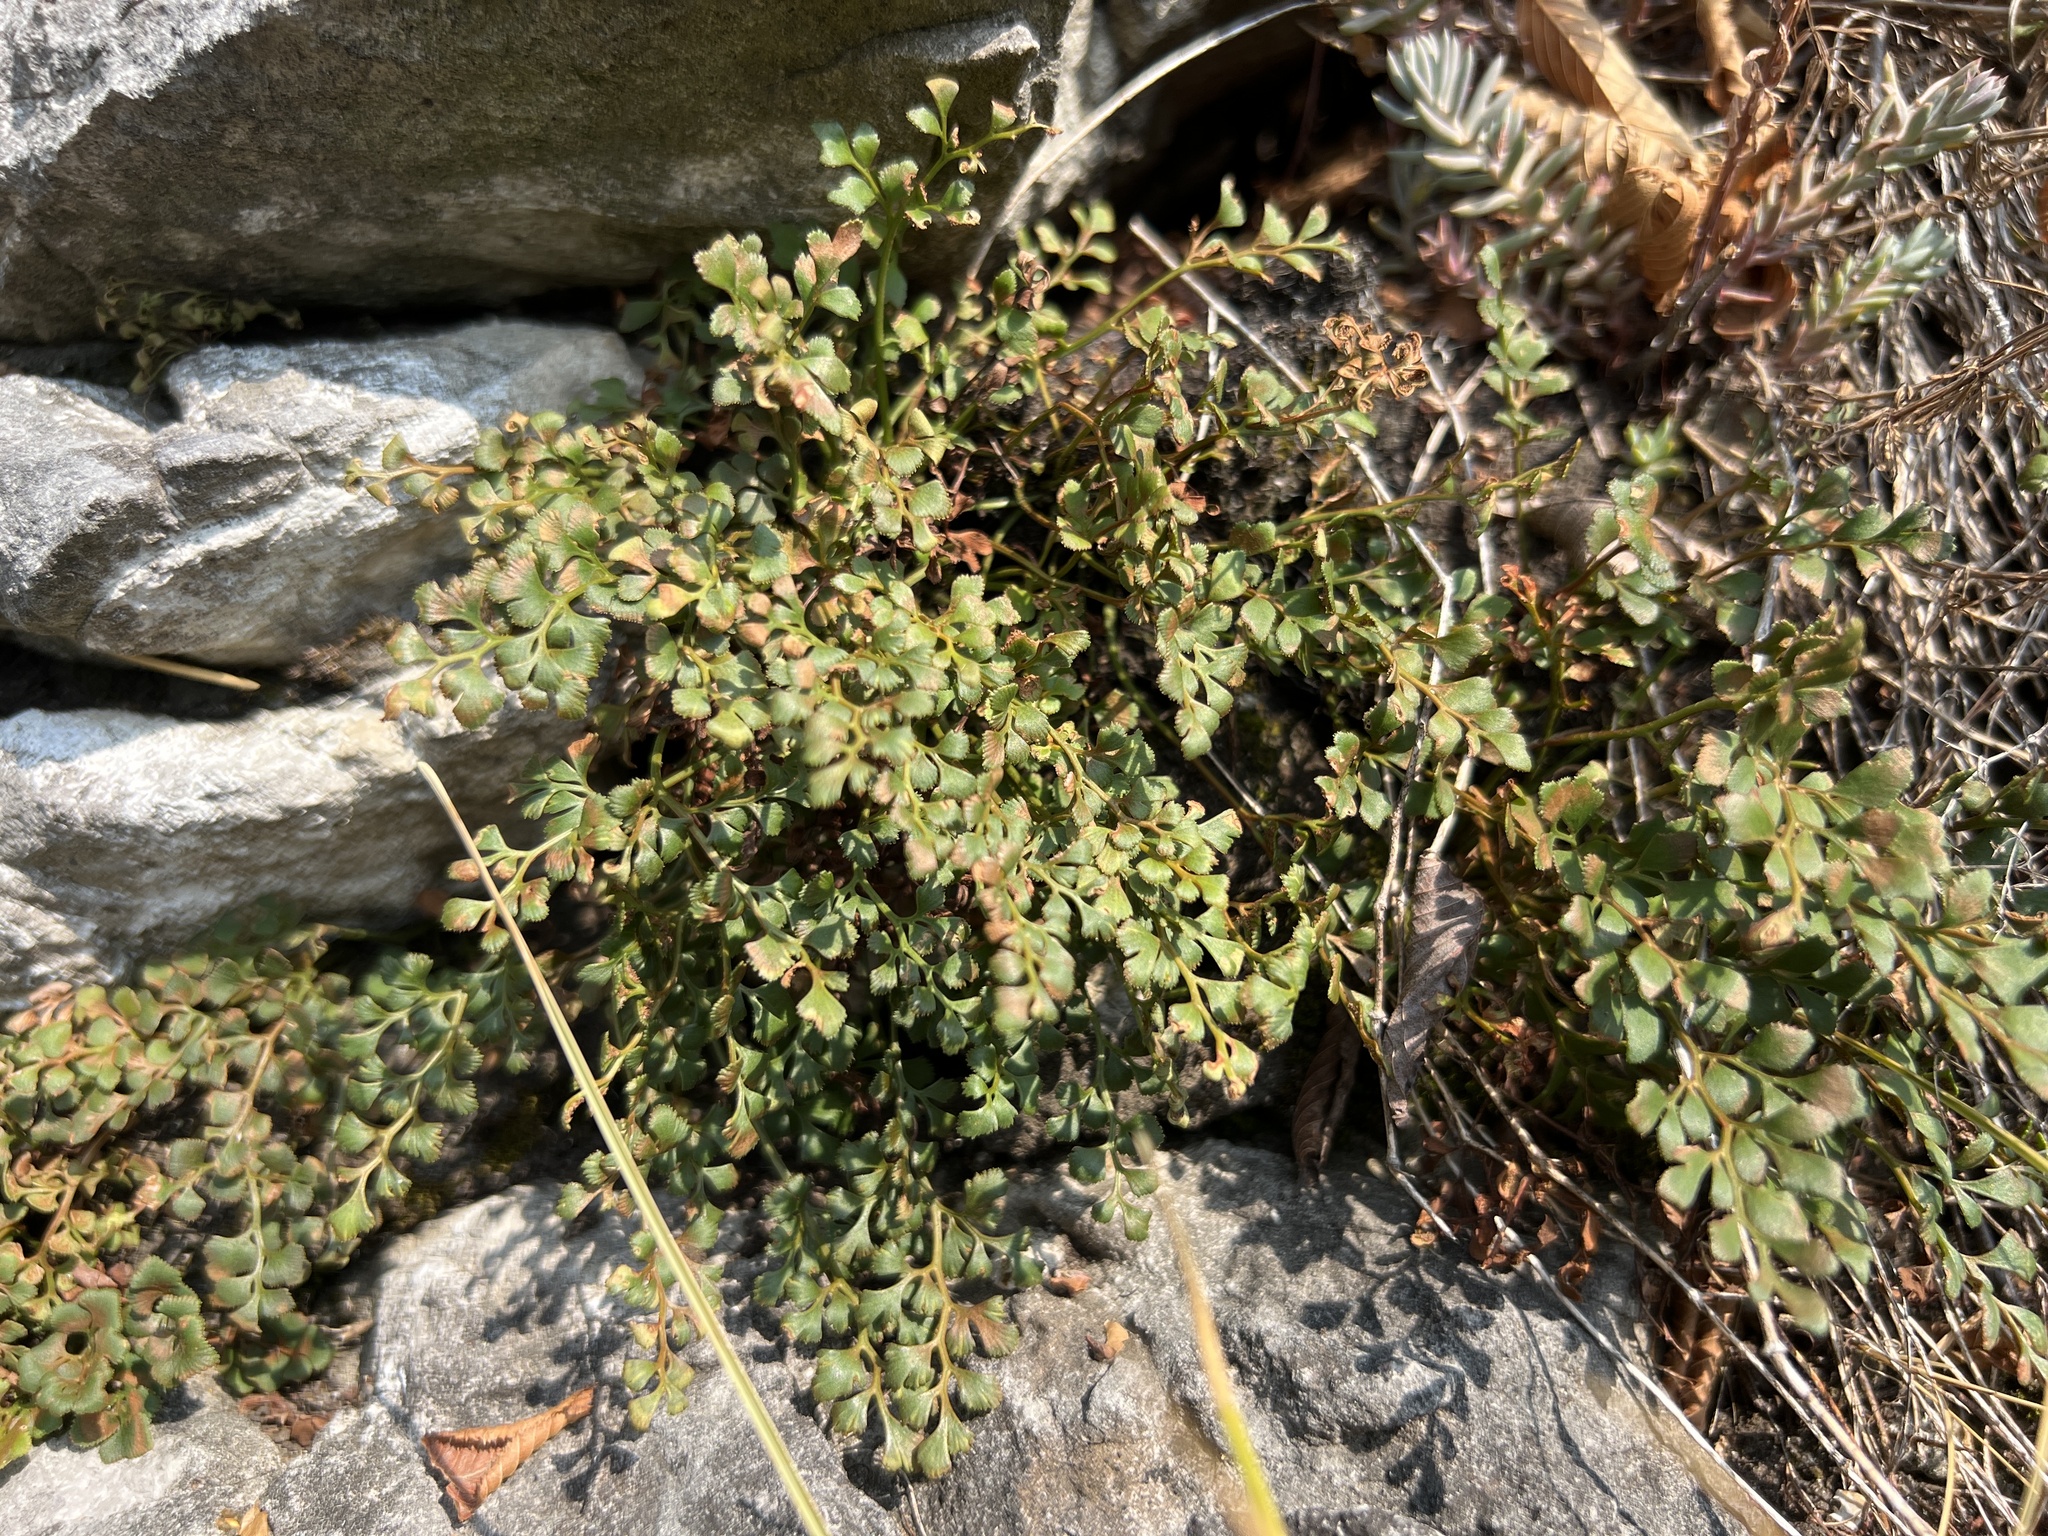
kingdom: Plantae
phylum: Tracheophyta
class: Polypodiopsida
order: Polypodiales
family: Aspleniaceae
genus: Asplenium
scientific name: Asplenium ruta-muraria
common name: Wall-rue
